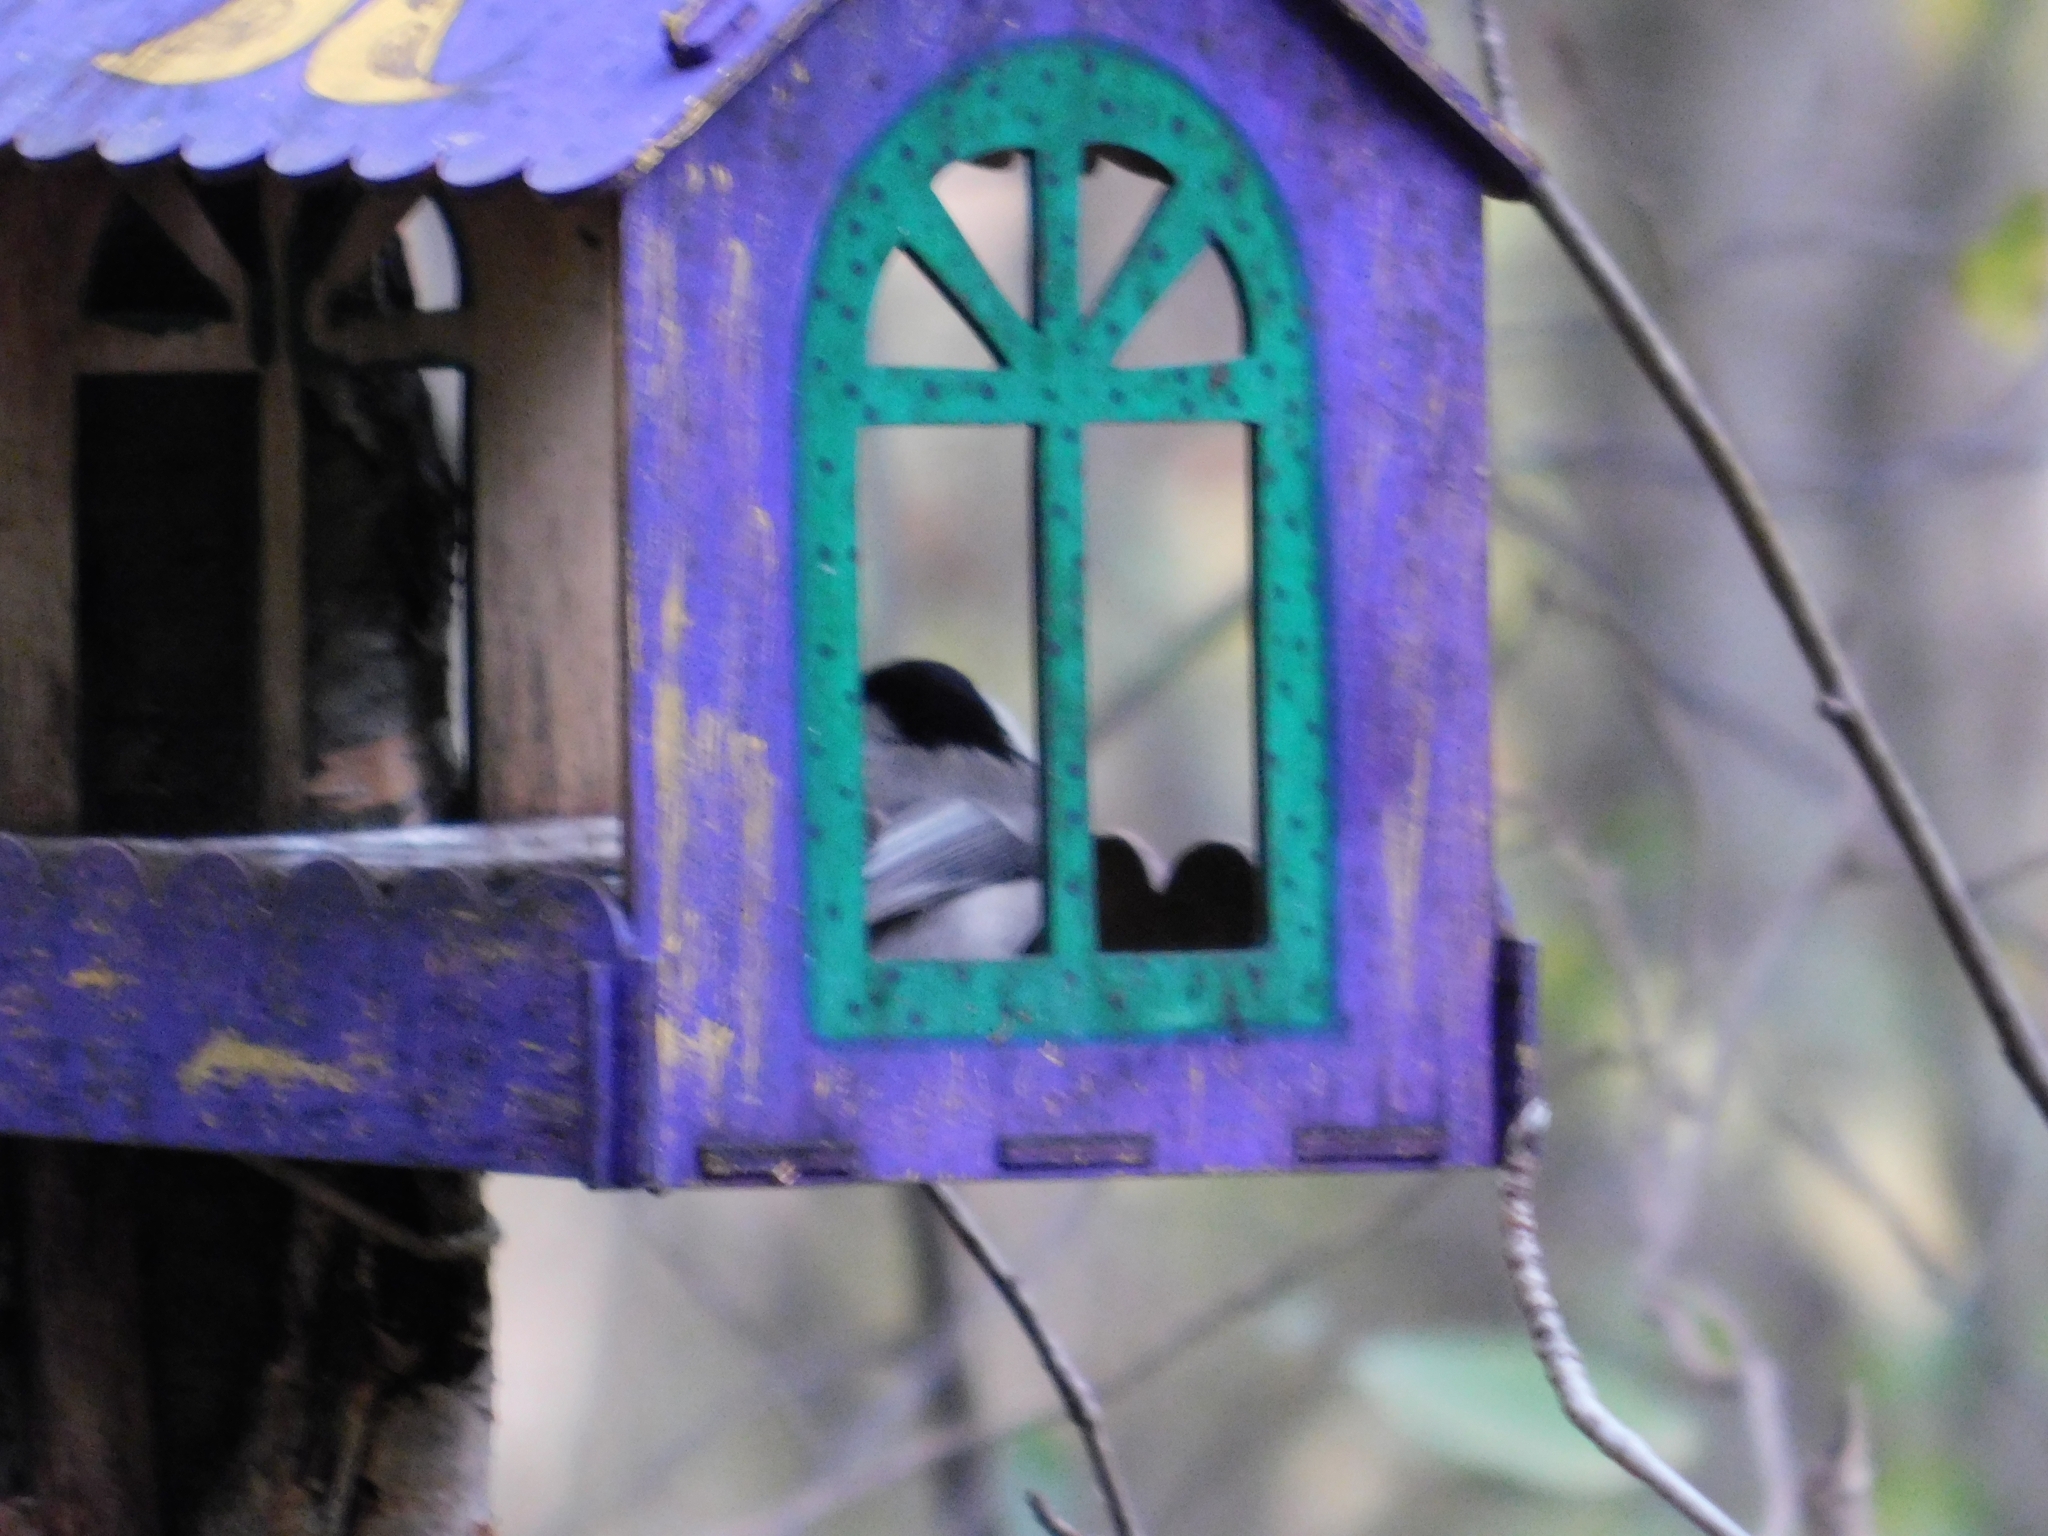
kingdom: Animalia
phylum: Chordata
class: Aves
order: Passeriformes
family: Paridae
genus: Poecile
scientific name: Poecile montanus
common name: Willow tit
